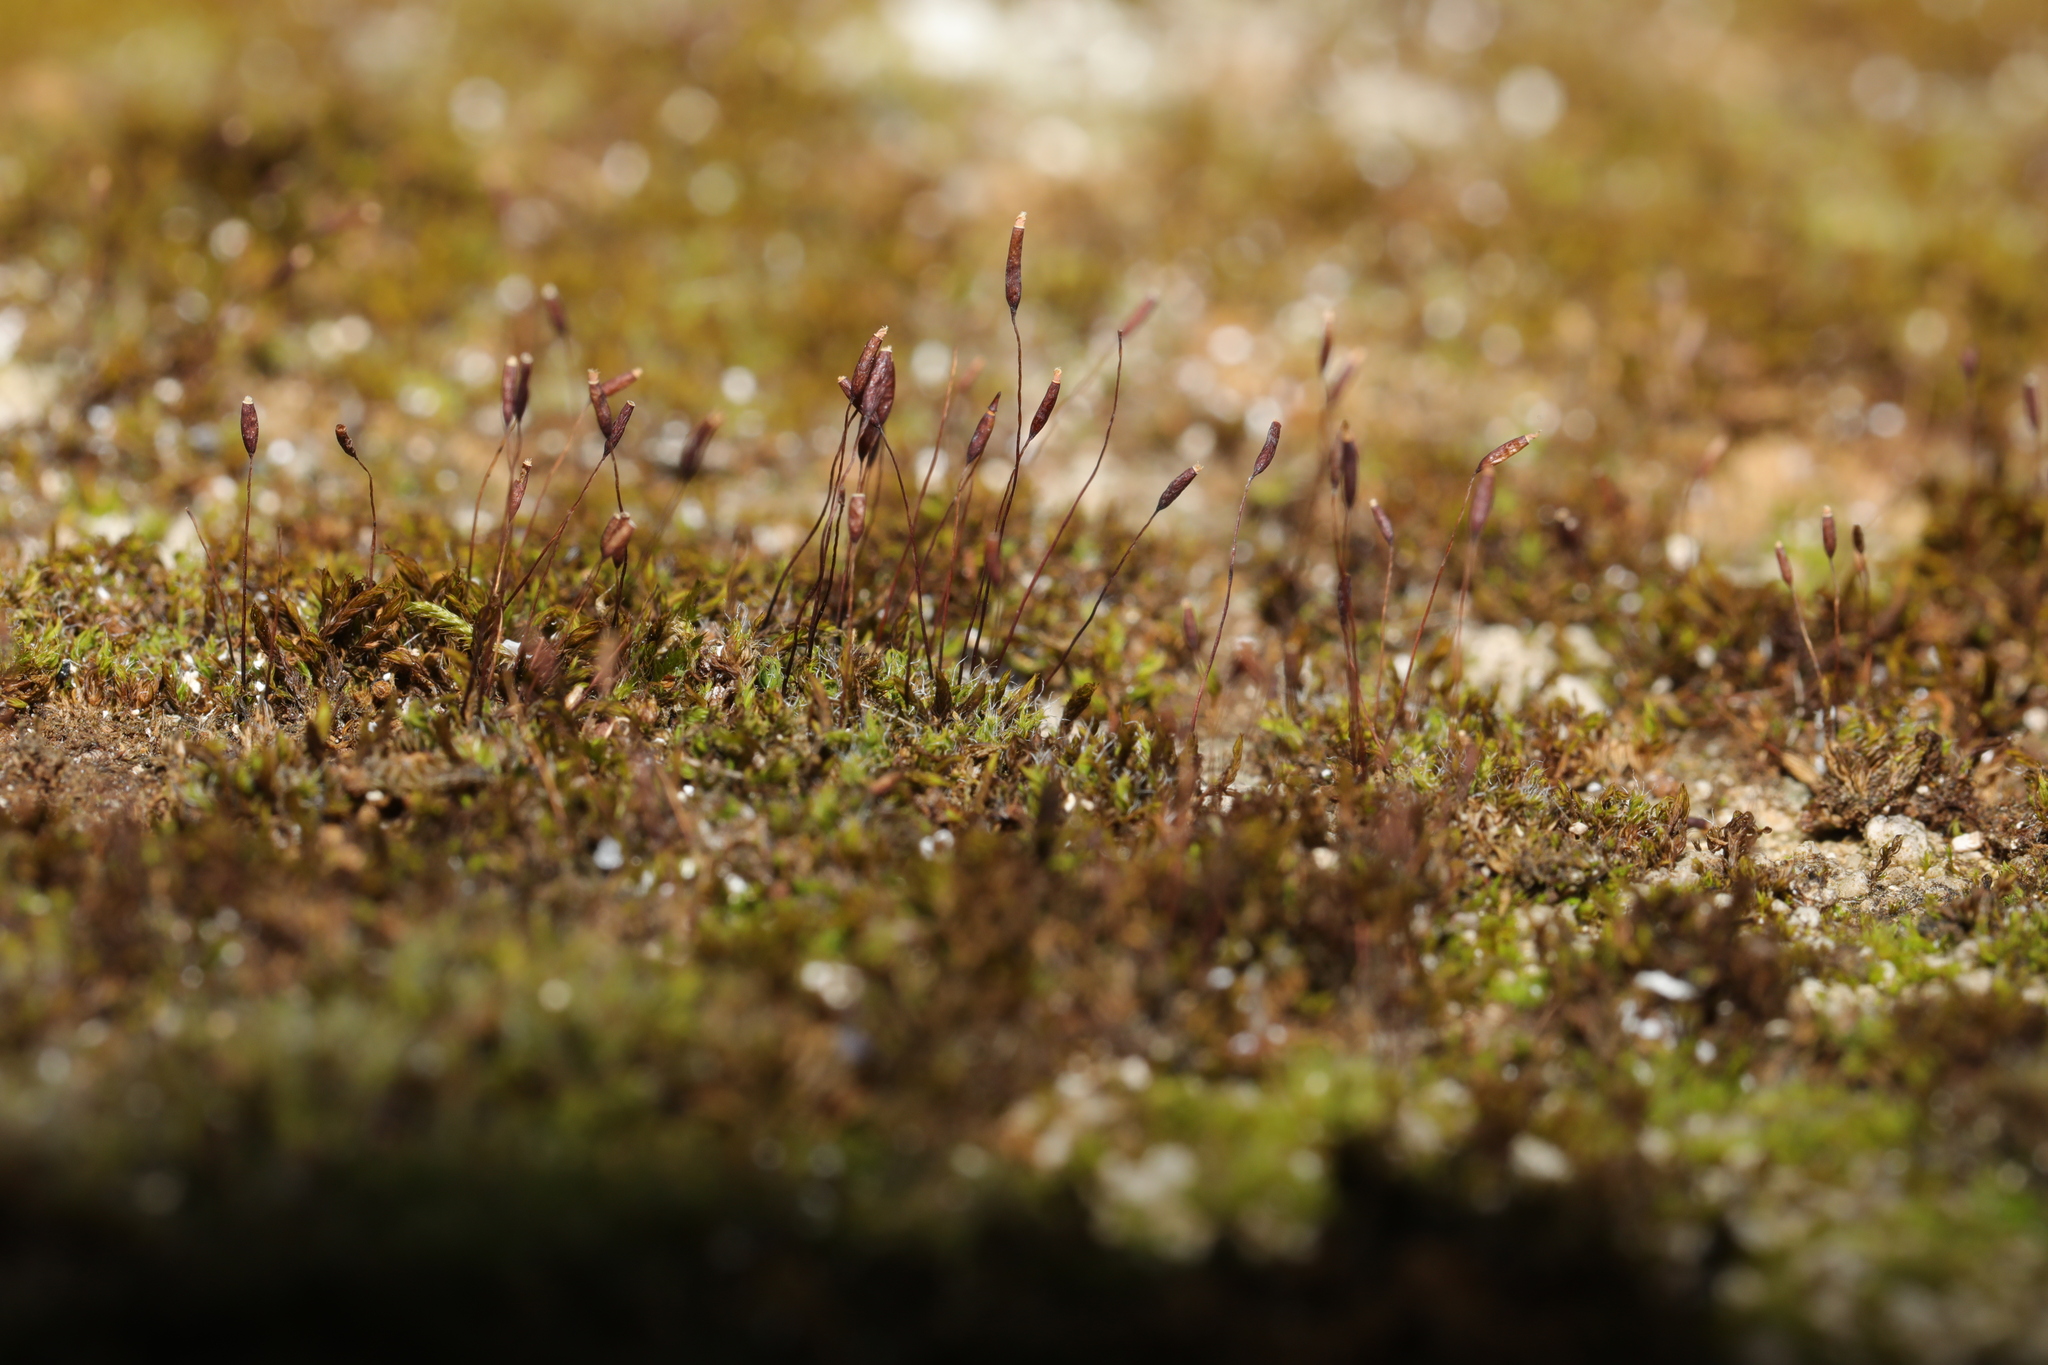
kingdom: Plantae
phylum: Bryophyta
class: Bryopsida
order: Pottiales
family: Pottiaceae
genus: Tortula
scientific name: Tortula muralis
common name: Wall screw-moss
